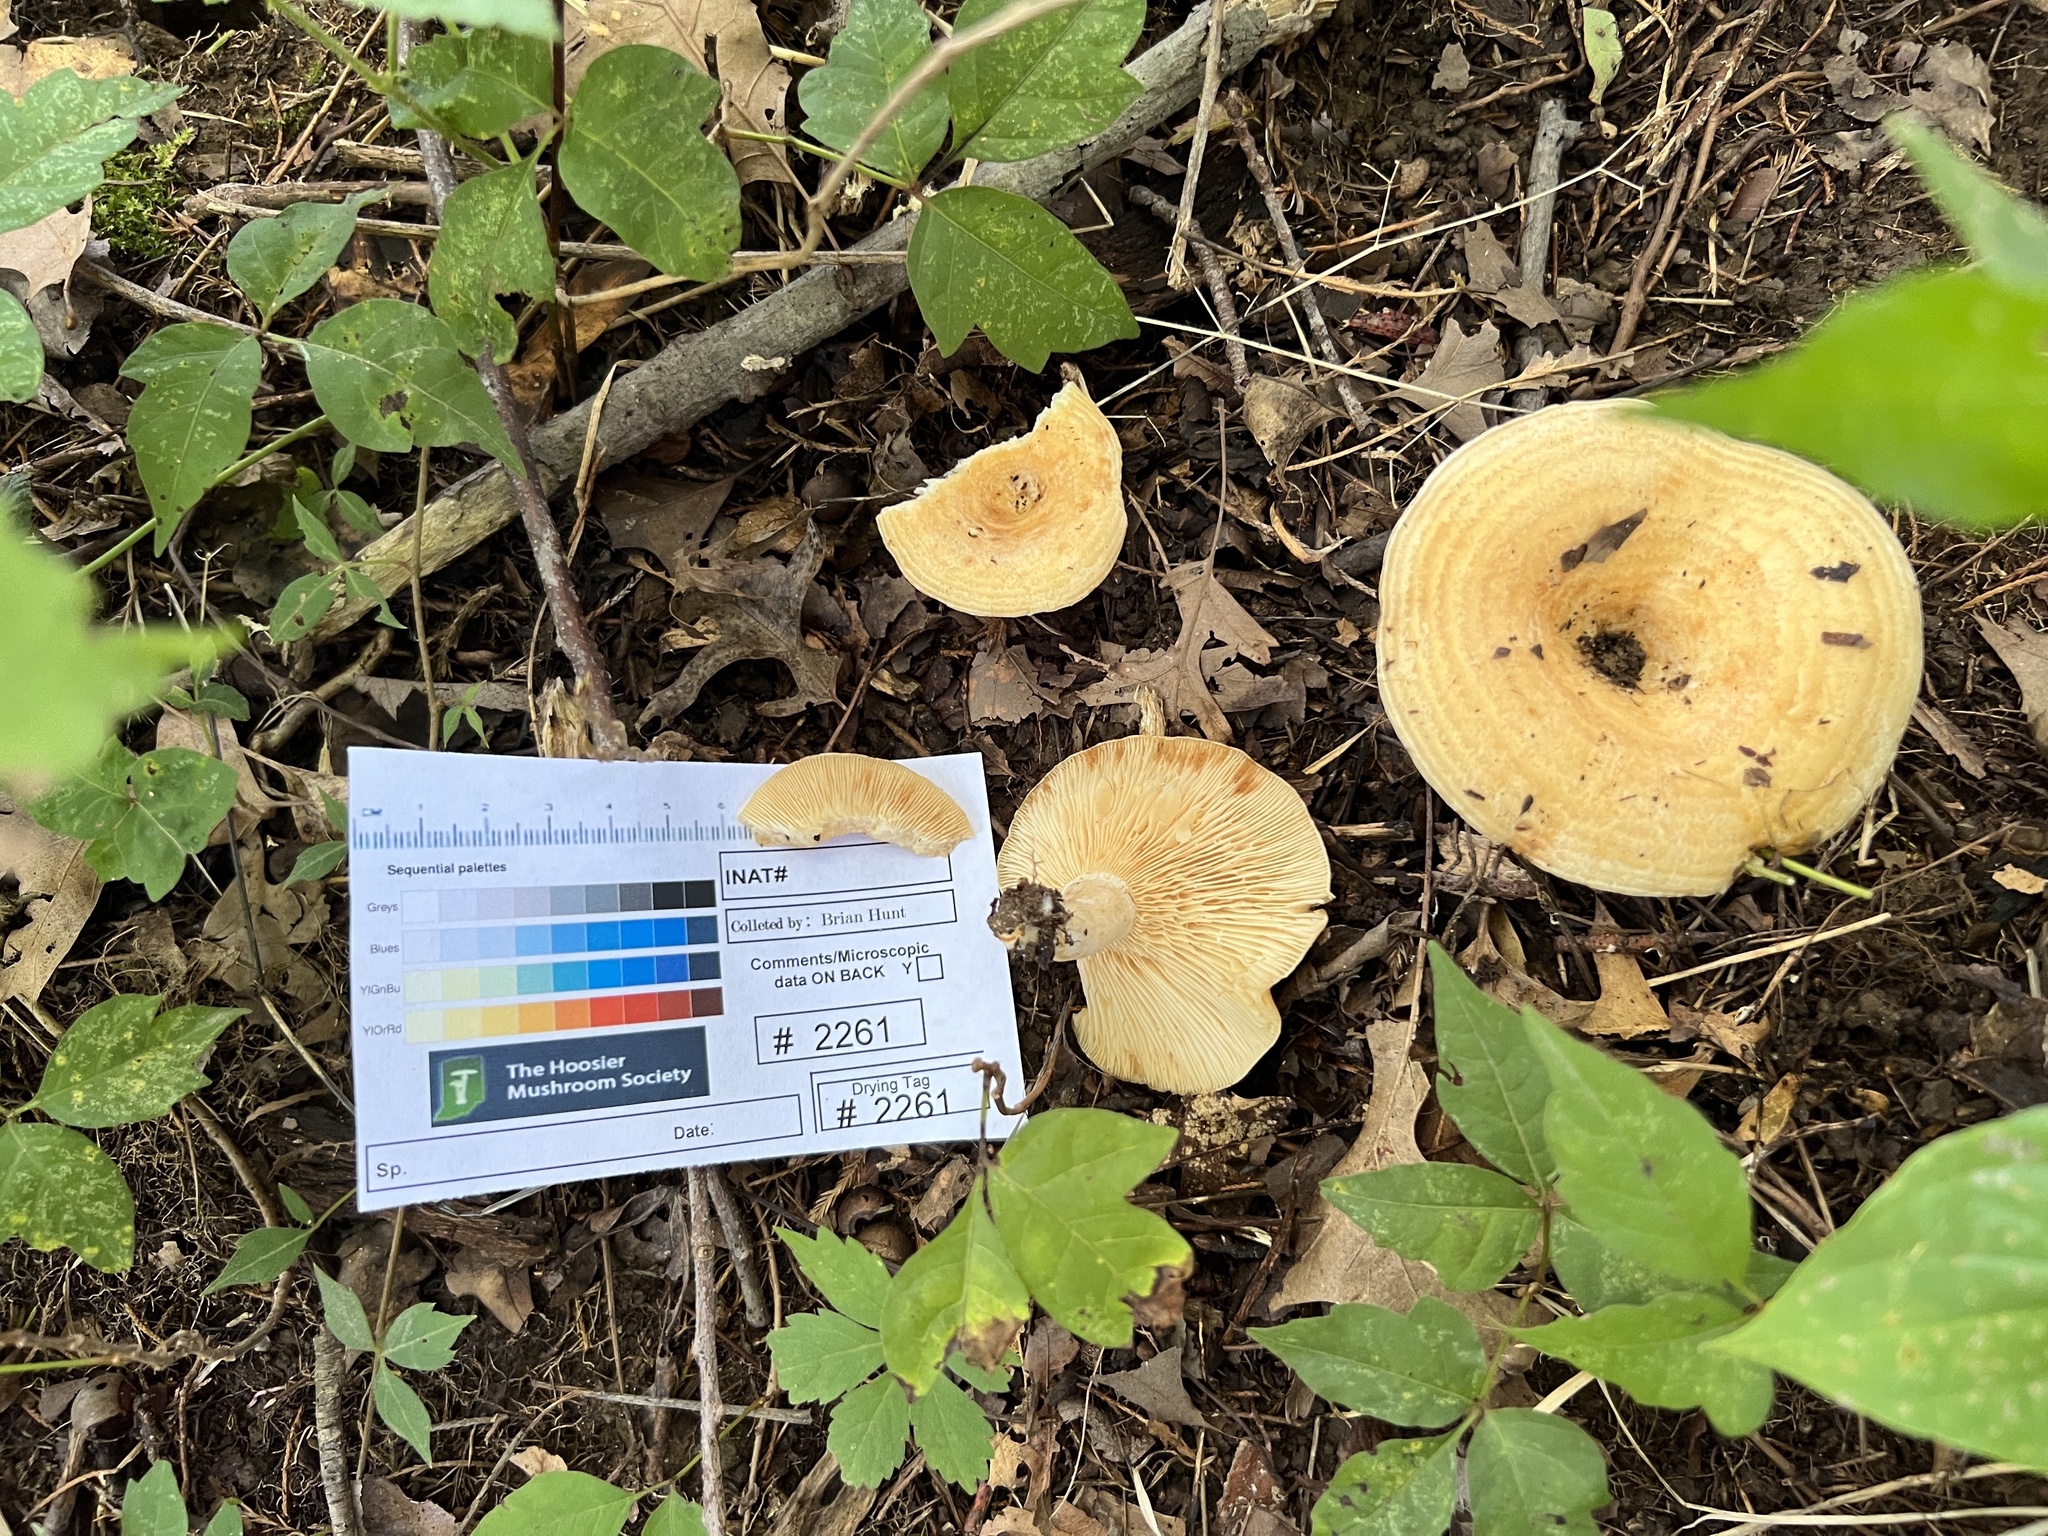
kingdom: Fungi
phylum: Basidiomycota
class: Agaricomycetes
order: Russulales
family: Russulaceae
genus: Lactarius
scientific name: Lactarius psammicola
